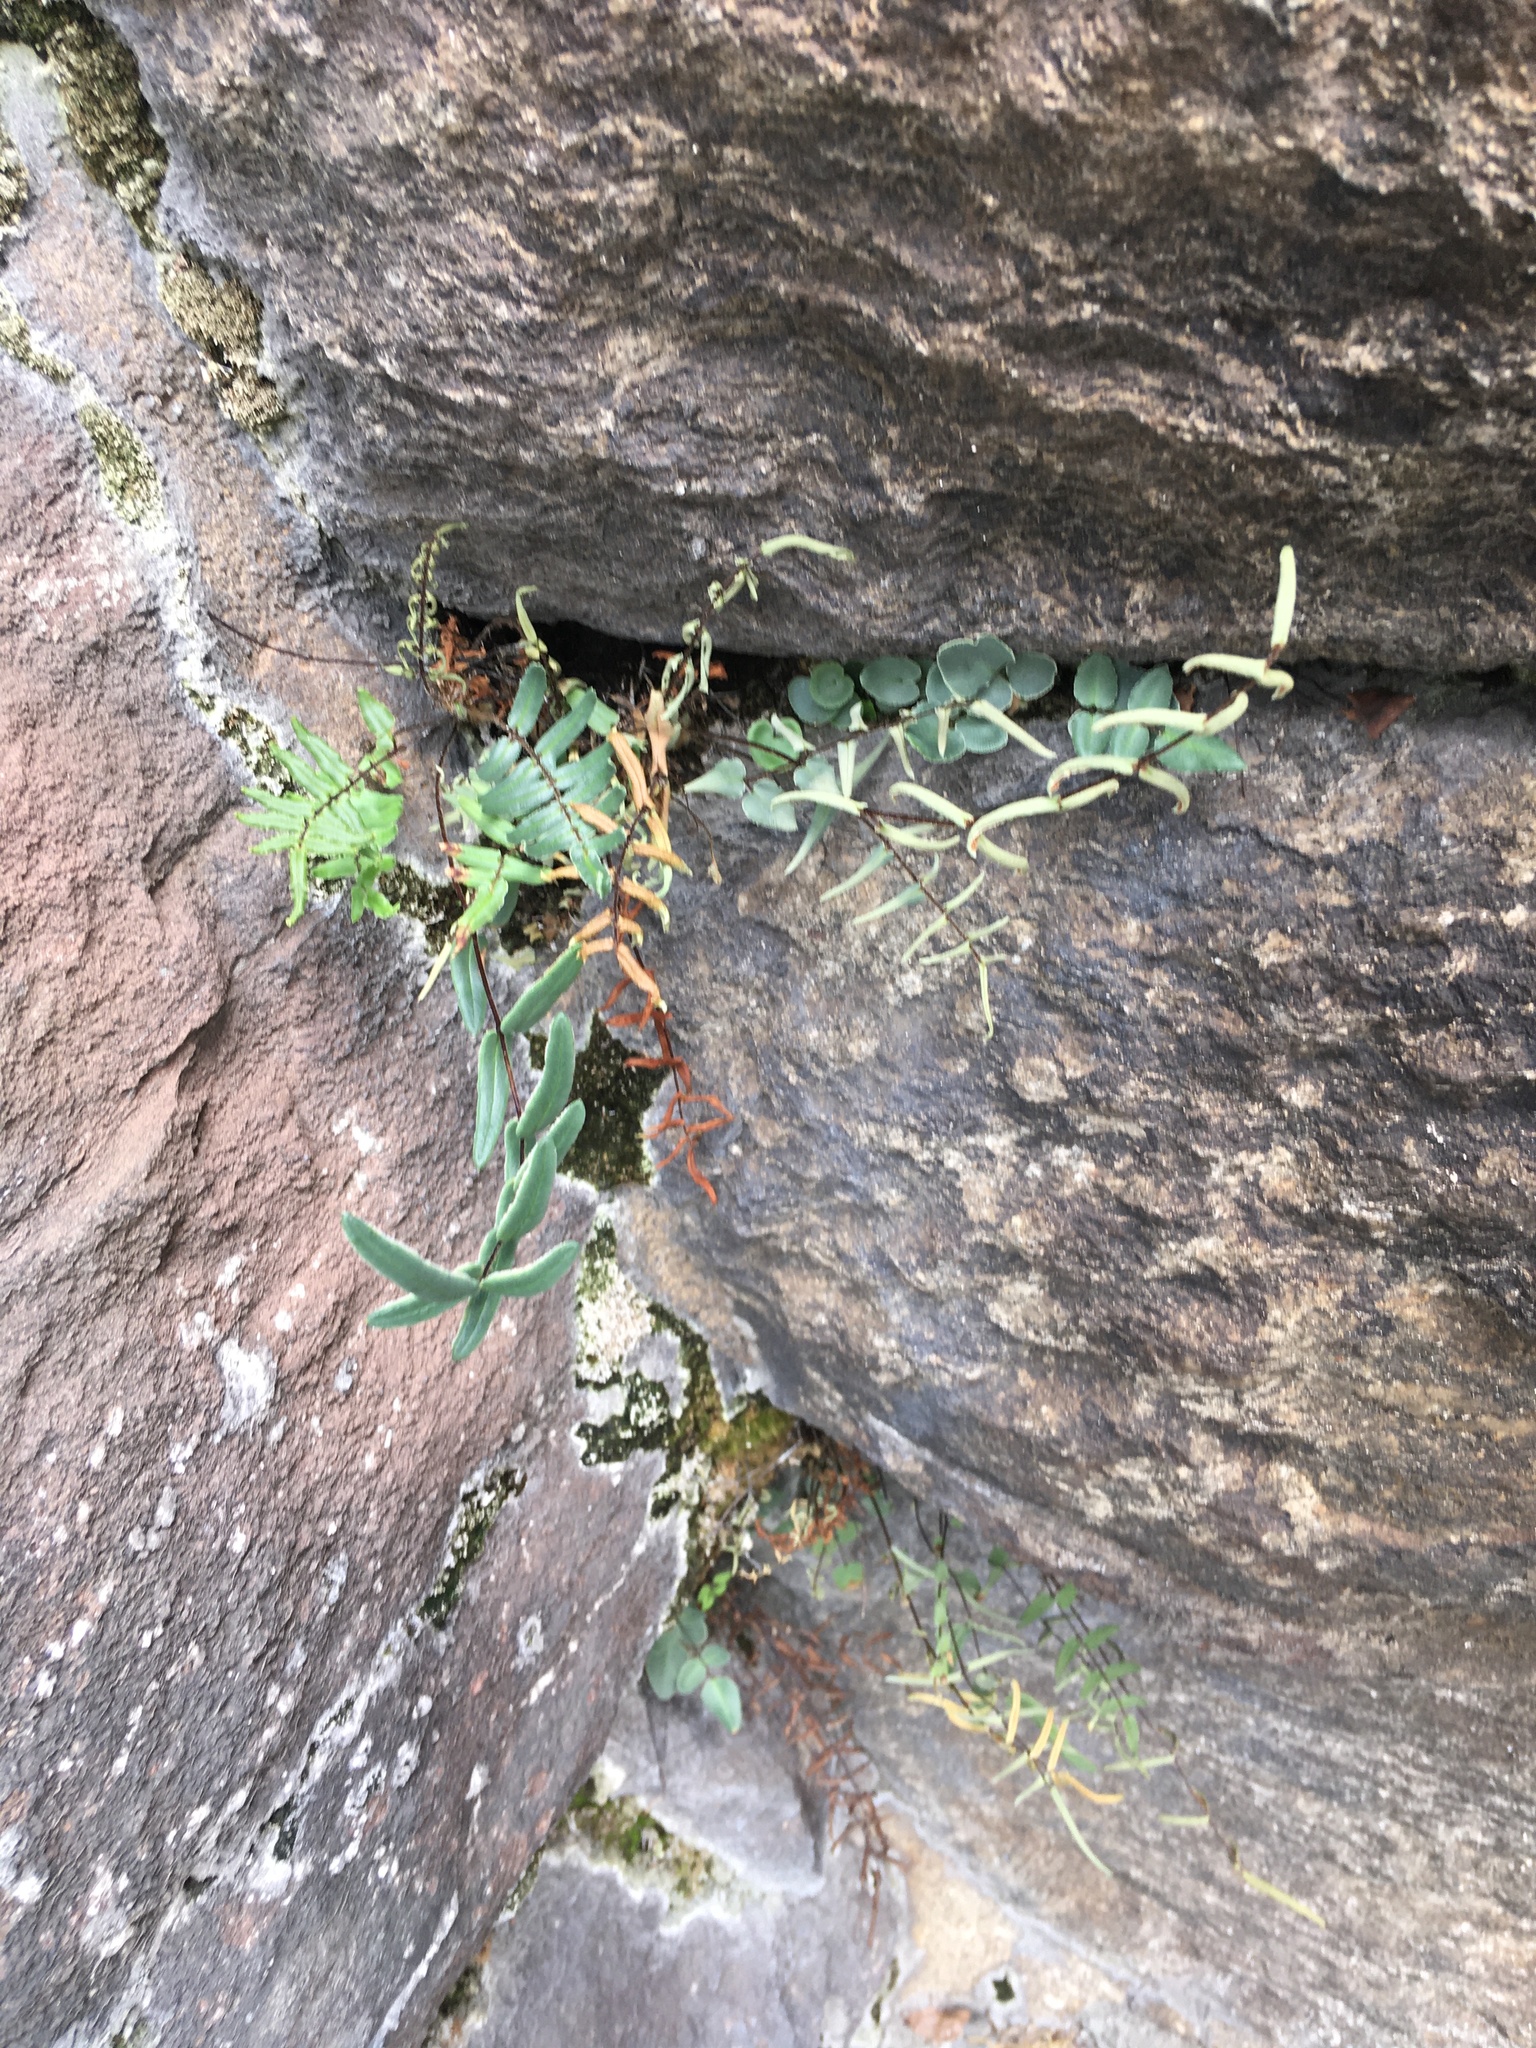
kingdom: Plantae
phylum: Tracheophyta
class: Polypodiopsida
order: Polypodiales
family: Pteridaceae
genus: Pellaea
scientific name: Pellaea atropurpurea
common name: Hairy cliffbrake
